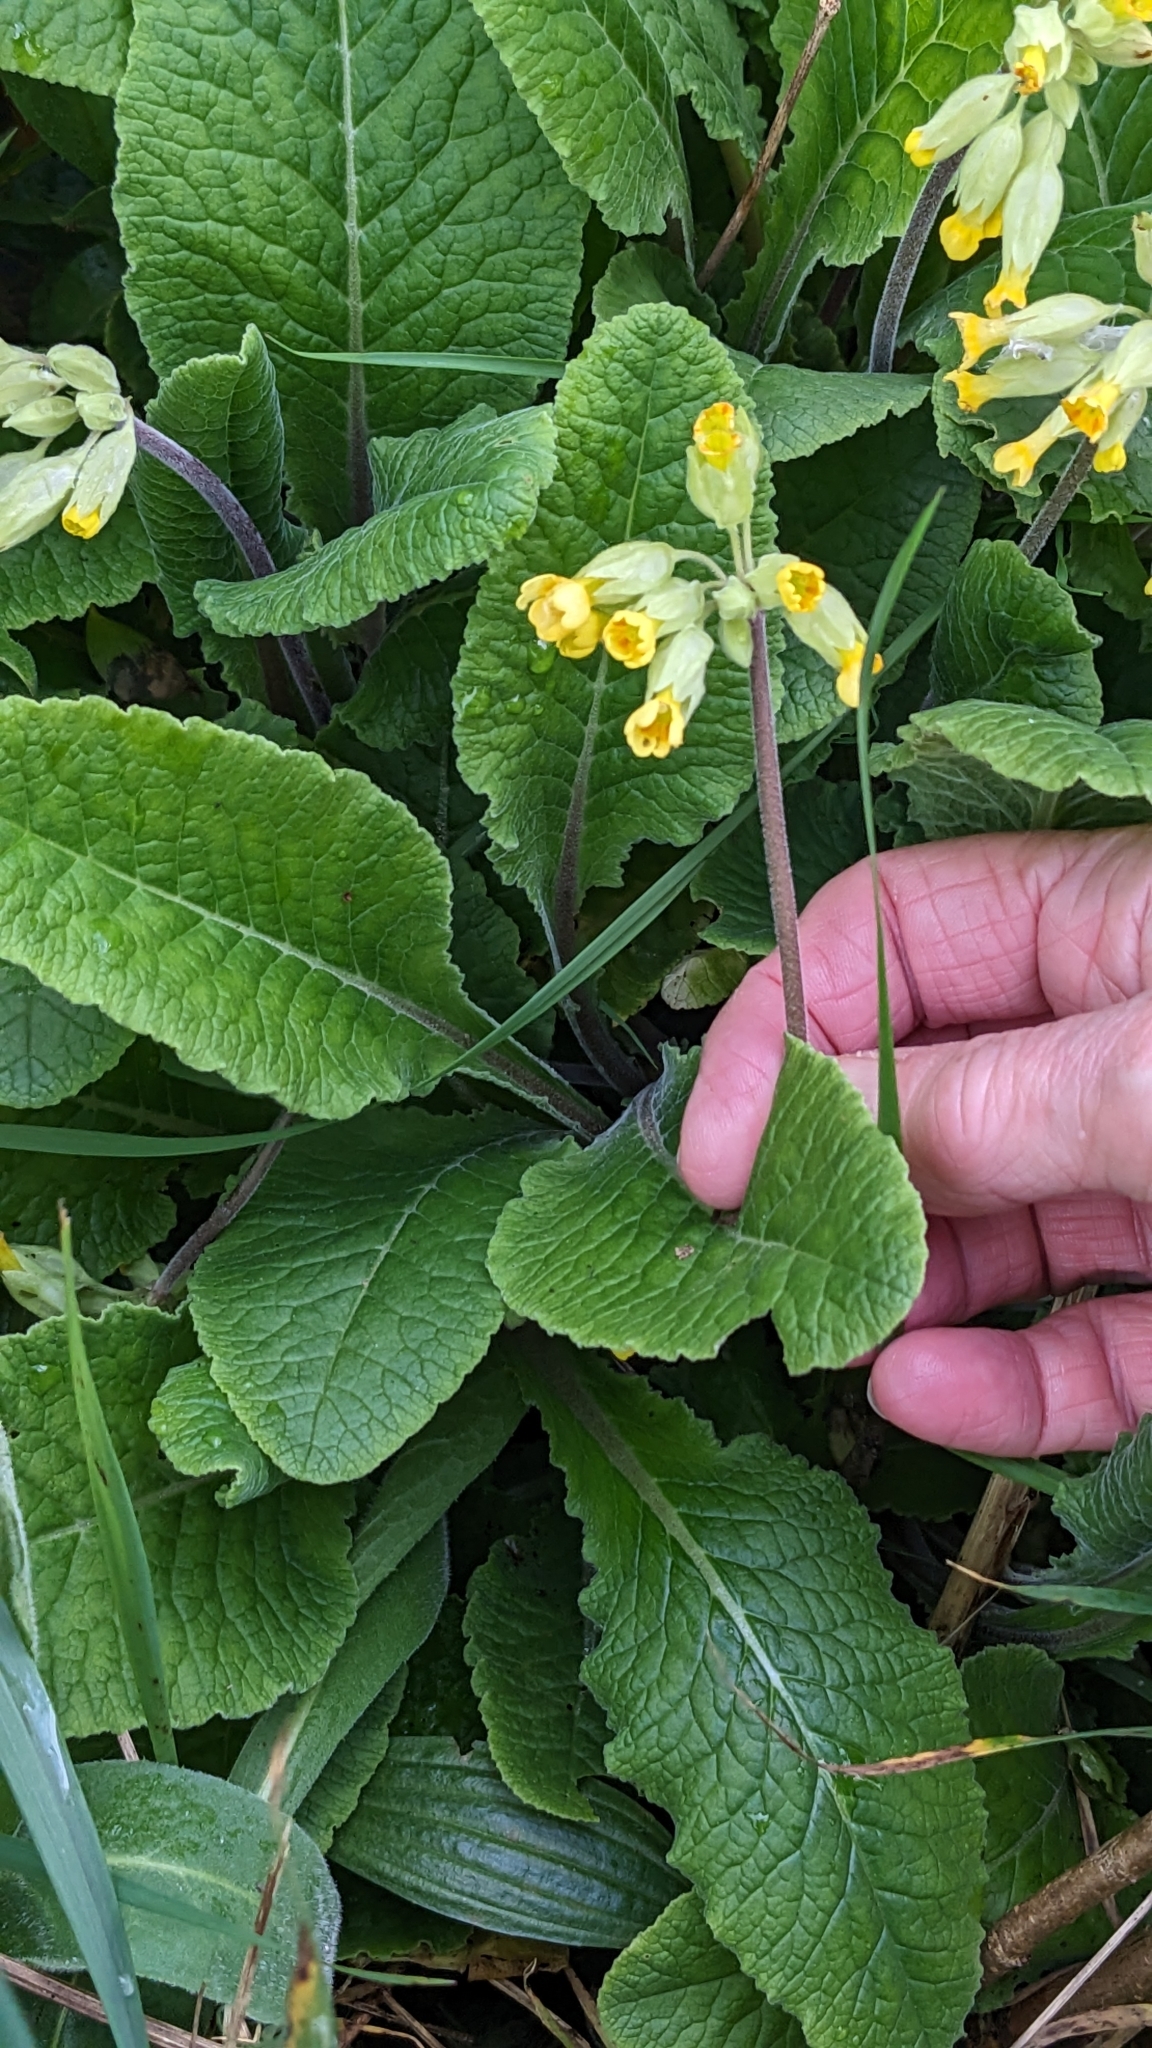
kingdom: Plantae
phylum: Tracheophyta
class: Magnoliopsida
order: Ericales
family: Primulaceae
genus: Primula
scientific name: Primula veris
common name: Cowslip
